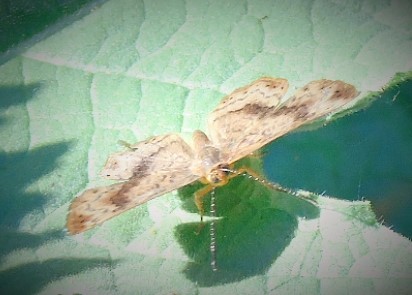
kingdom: Animalia
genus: Calephelis
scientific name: Calephelis
